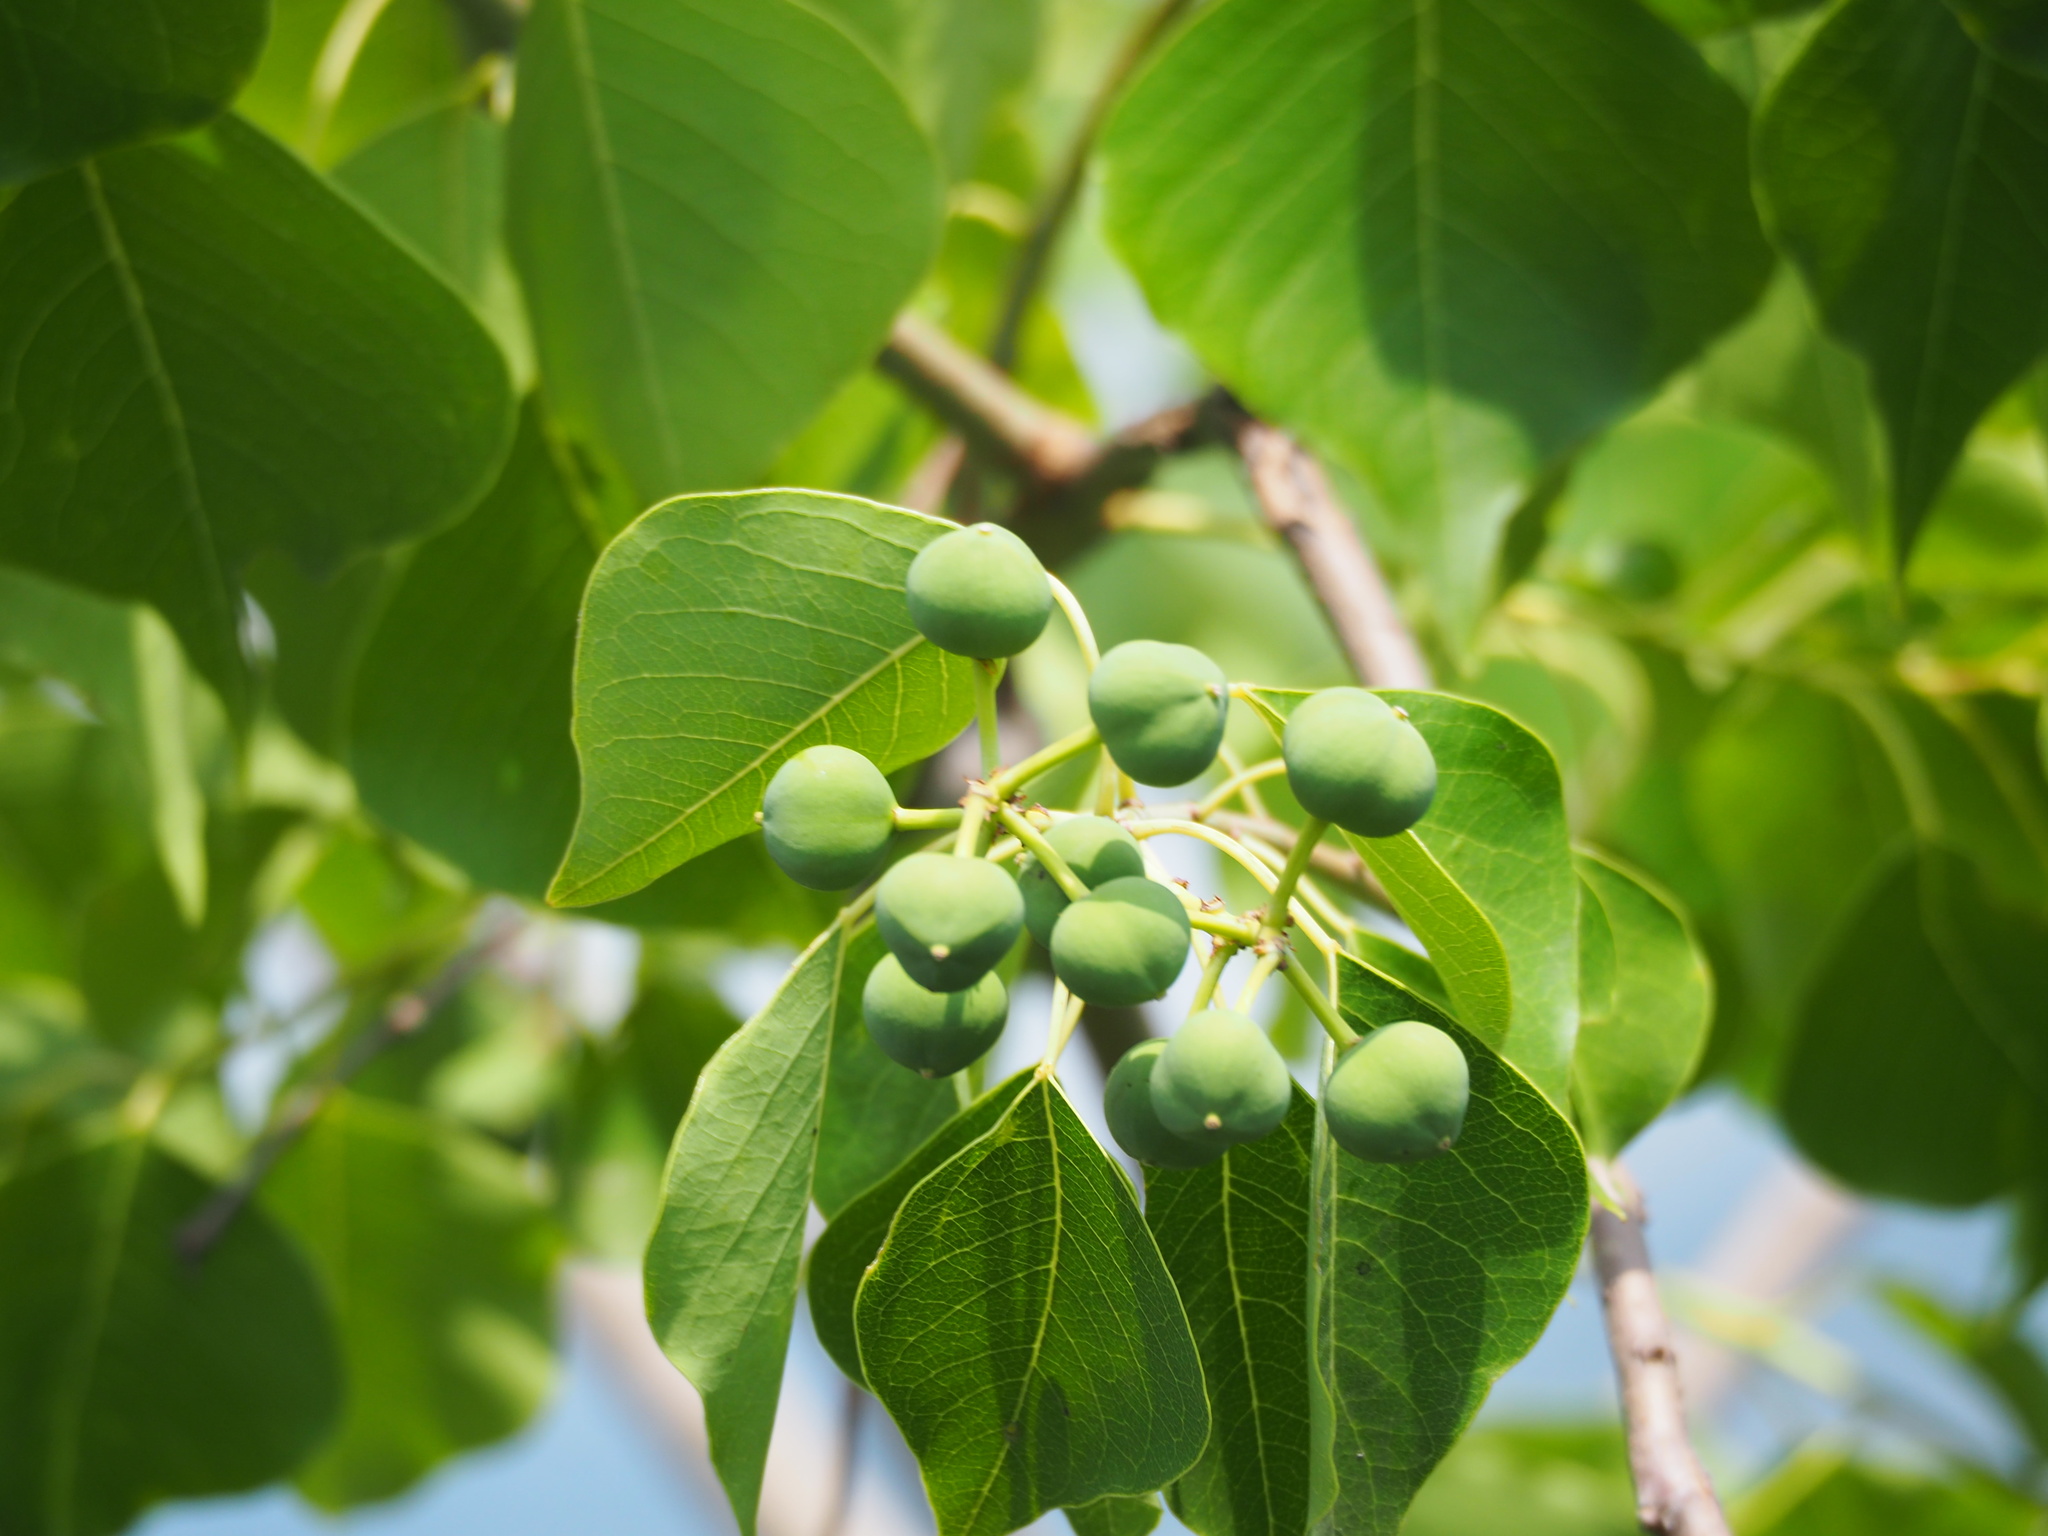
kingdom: Plantae
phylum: Tracheophyta
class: Magnoliopsida
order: Malpighiales
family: Euphorbiaceae
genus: Triadica
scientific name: Triadica sebifera
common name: Chinese tallow
